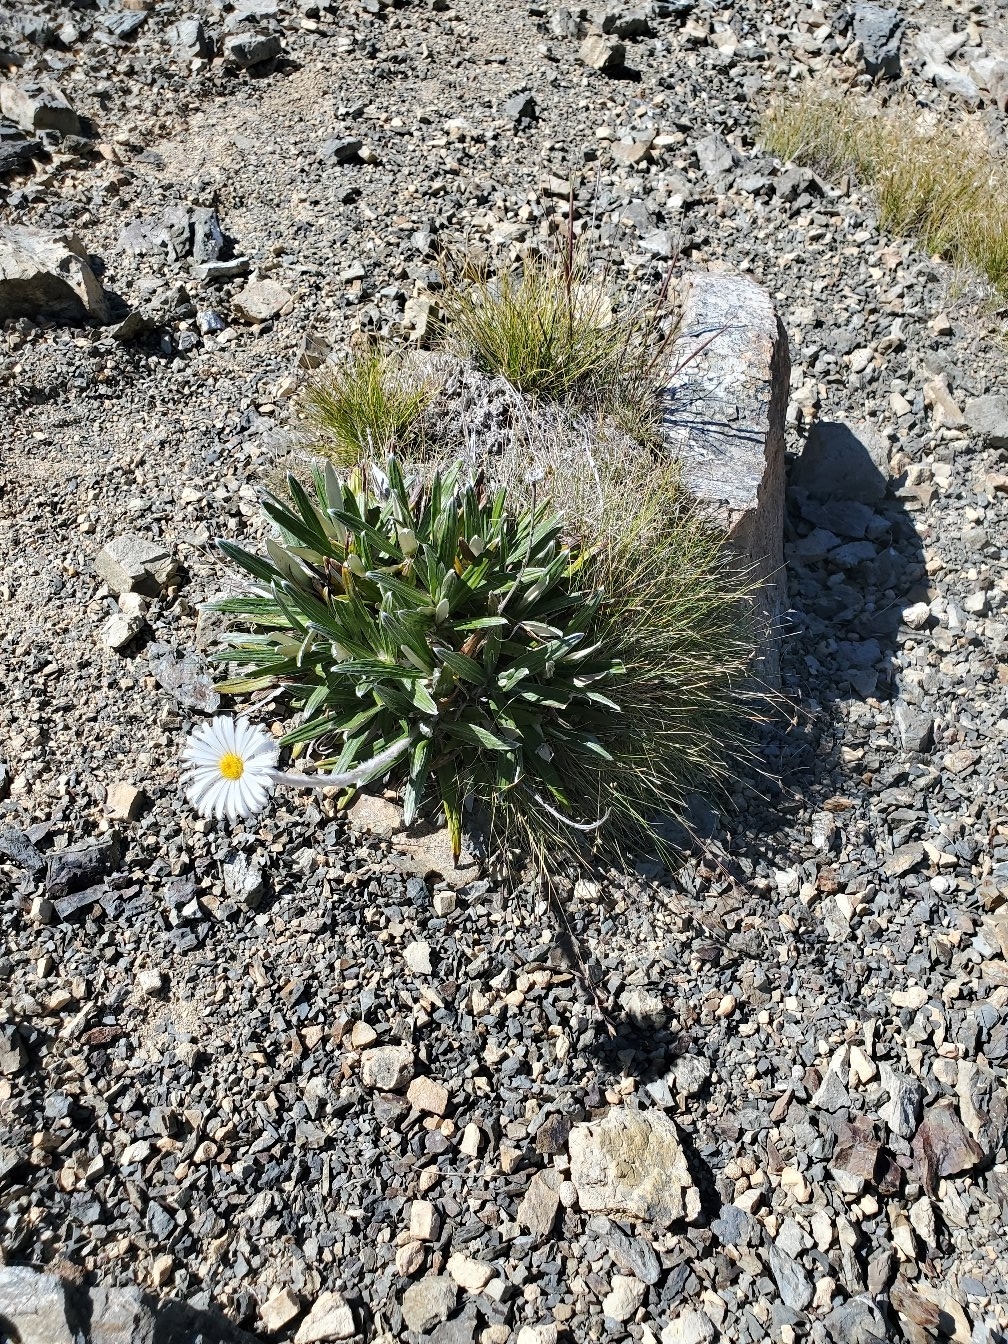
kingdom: Plantae
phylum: Tracheophyta
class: Magnoliopsida
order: Asterales
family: Asteraceae
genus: Celmisia
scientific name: Celmisia spectabilis
